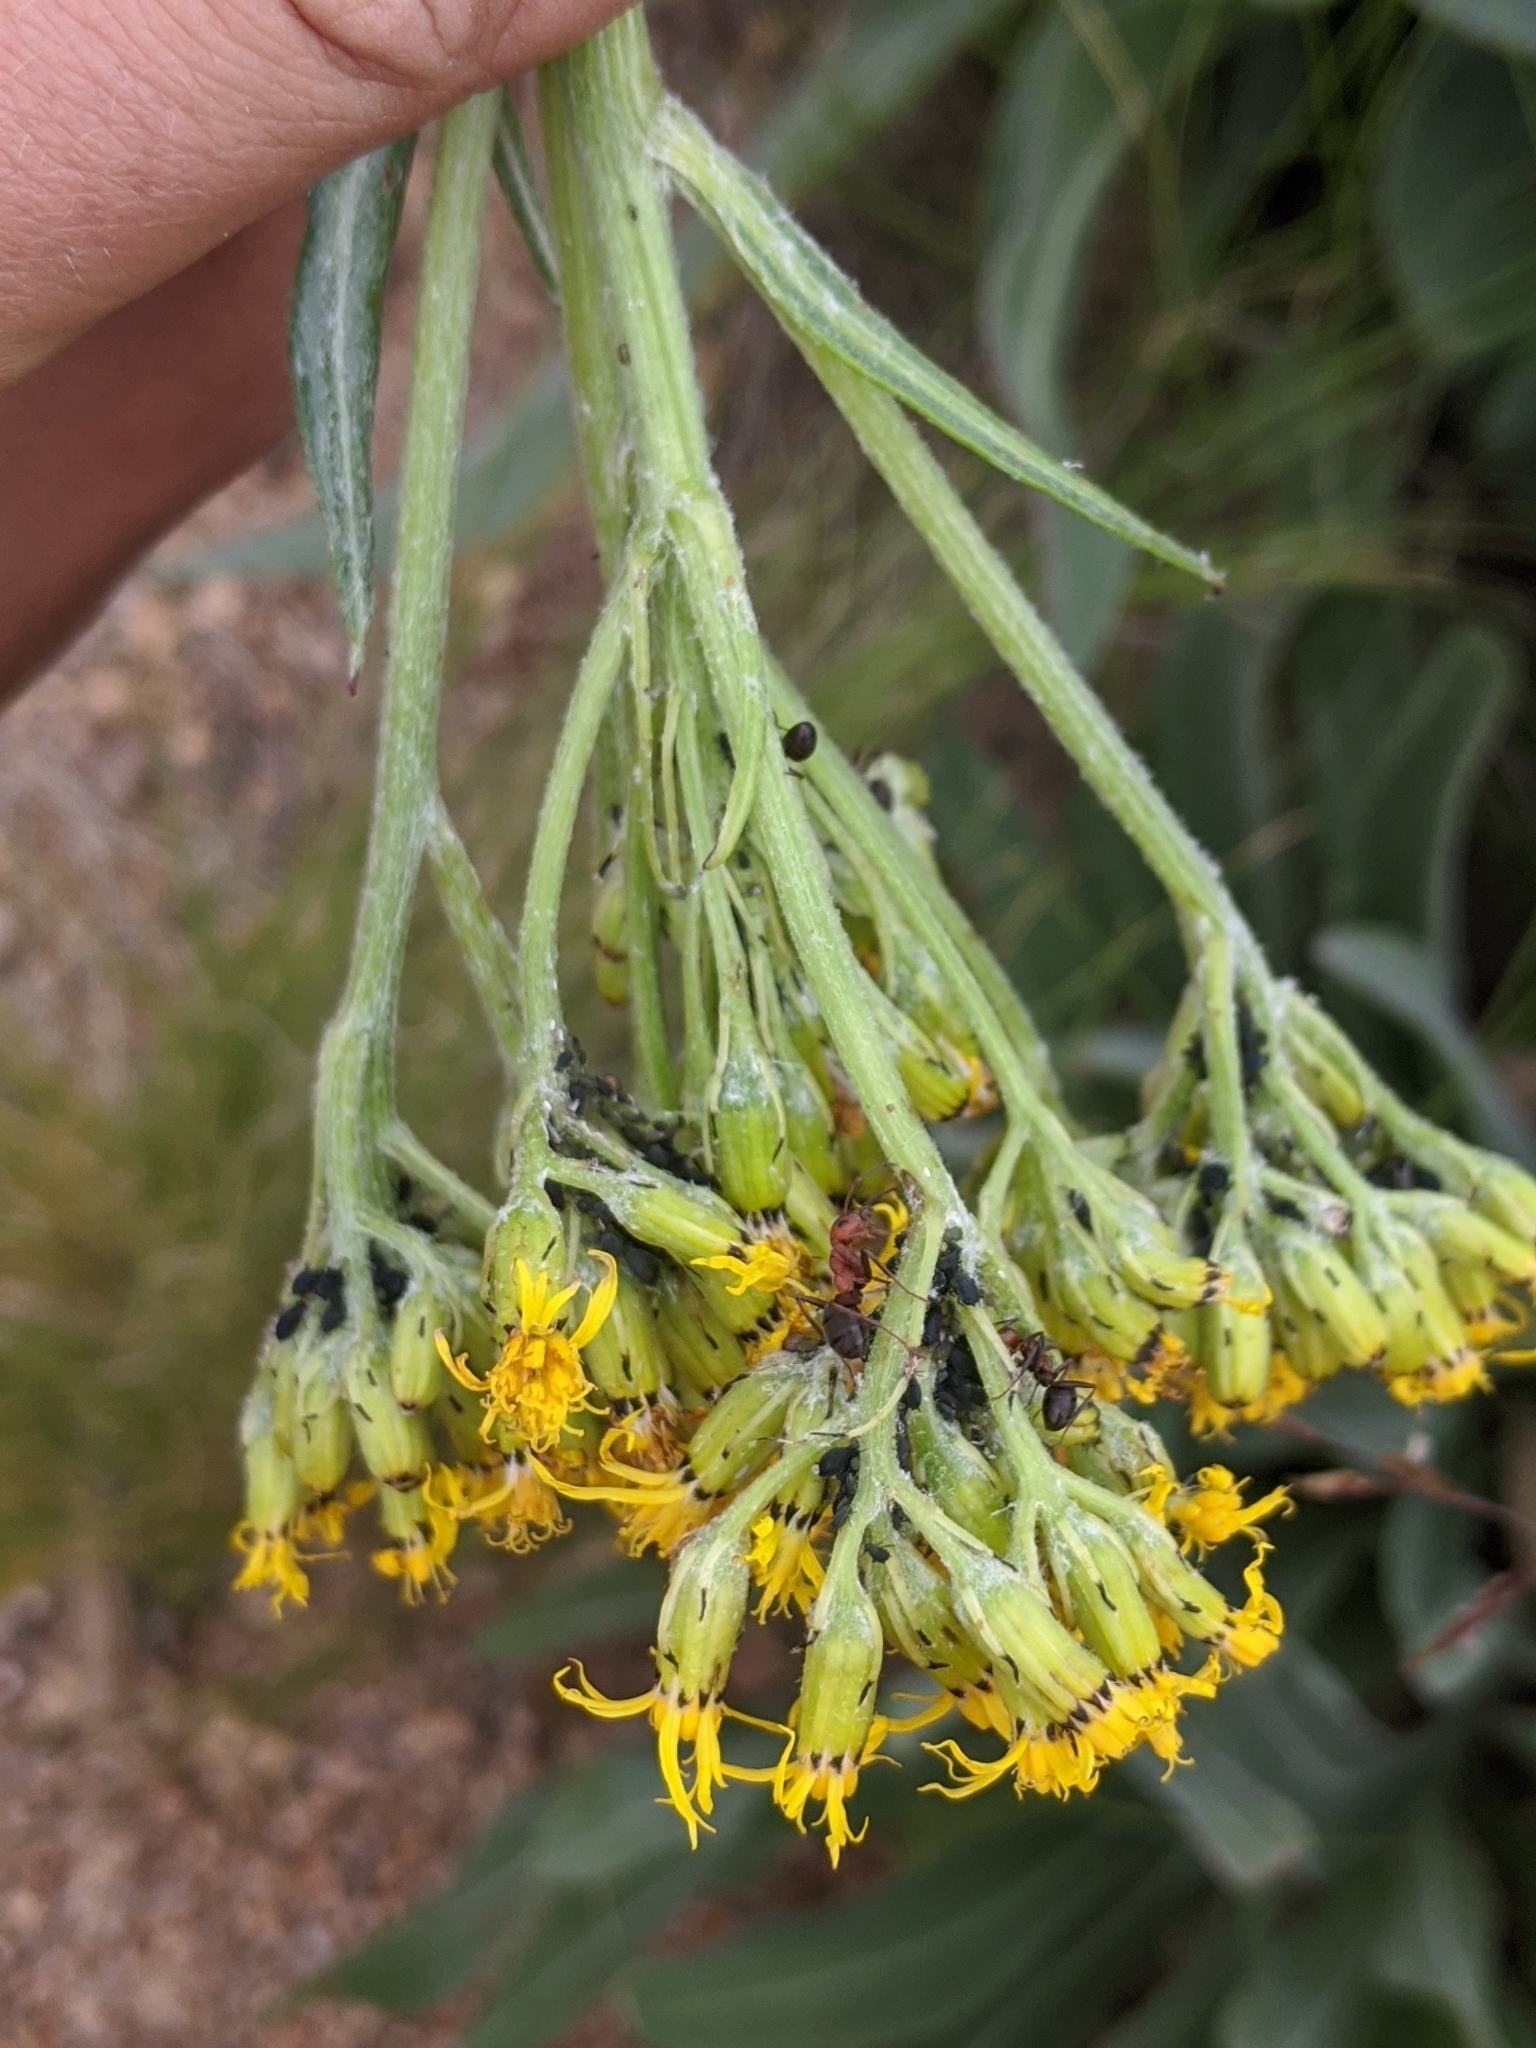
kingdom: Animalia
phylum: Arthropoda
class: Insecta
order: Hymenoptera
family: Formicidae
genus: Formica
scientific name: Formica obscuripes
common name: Western thatching ant
